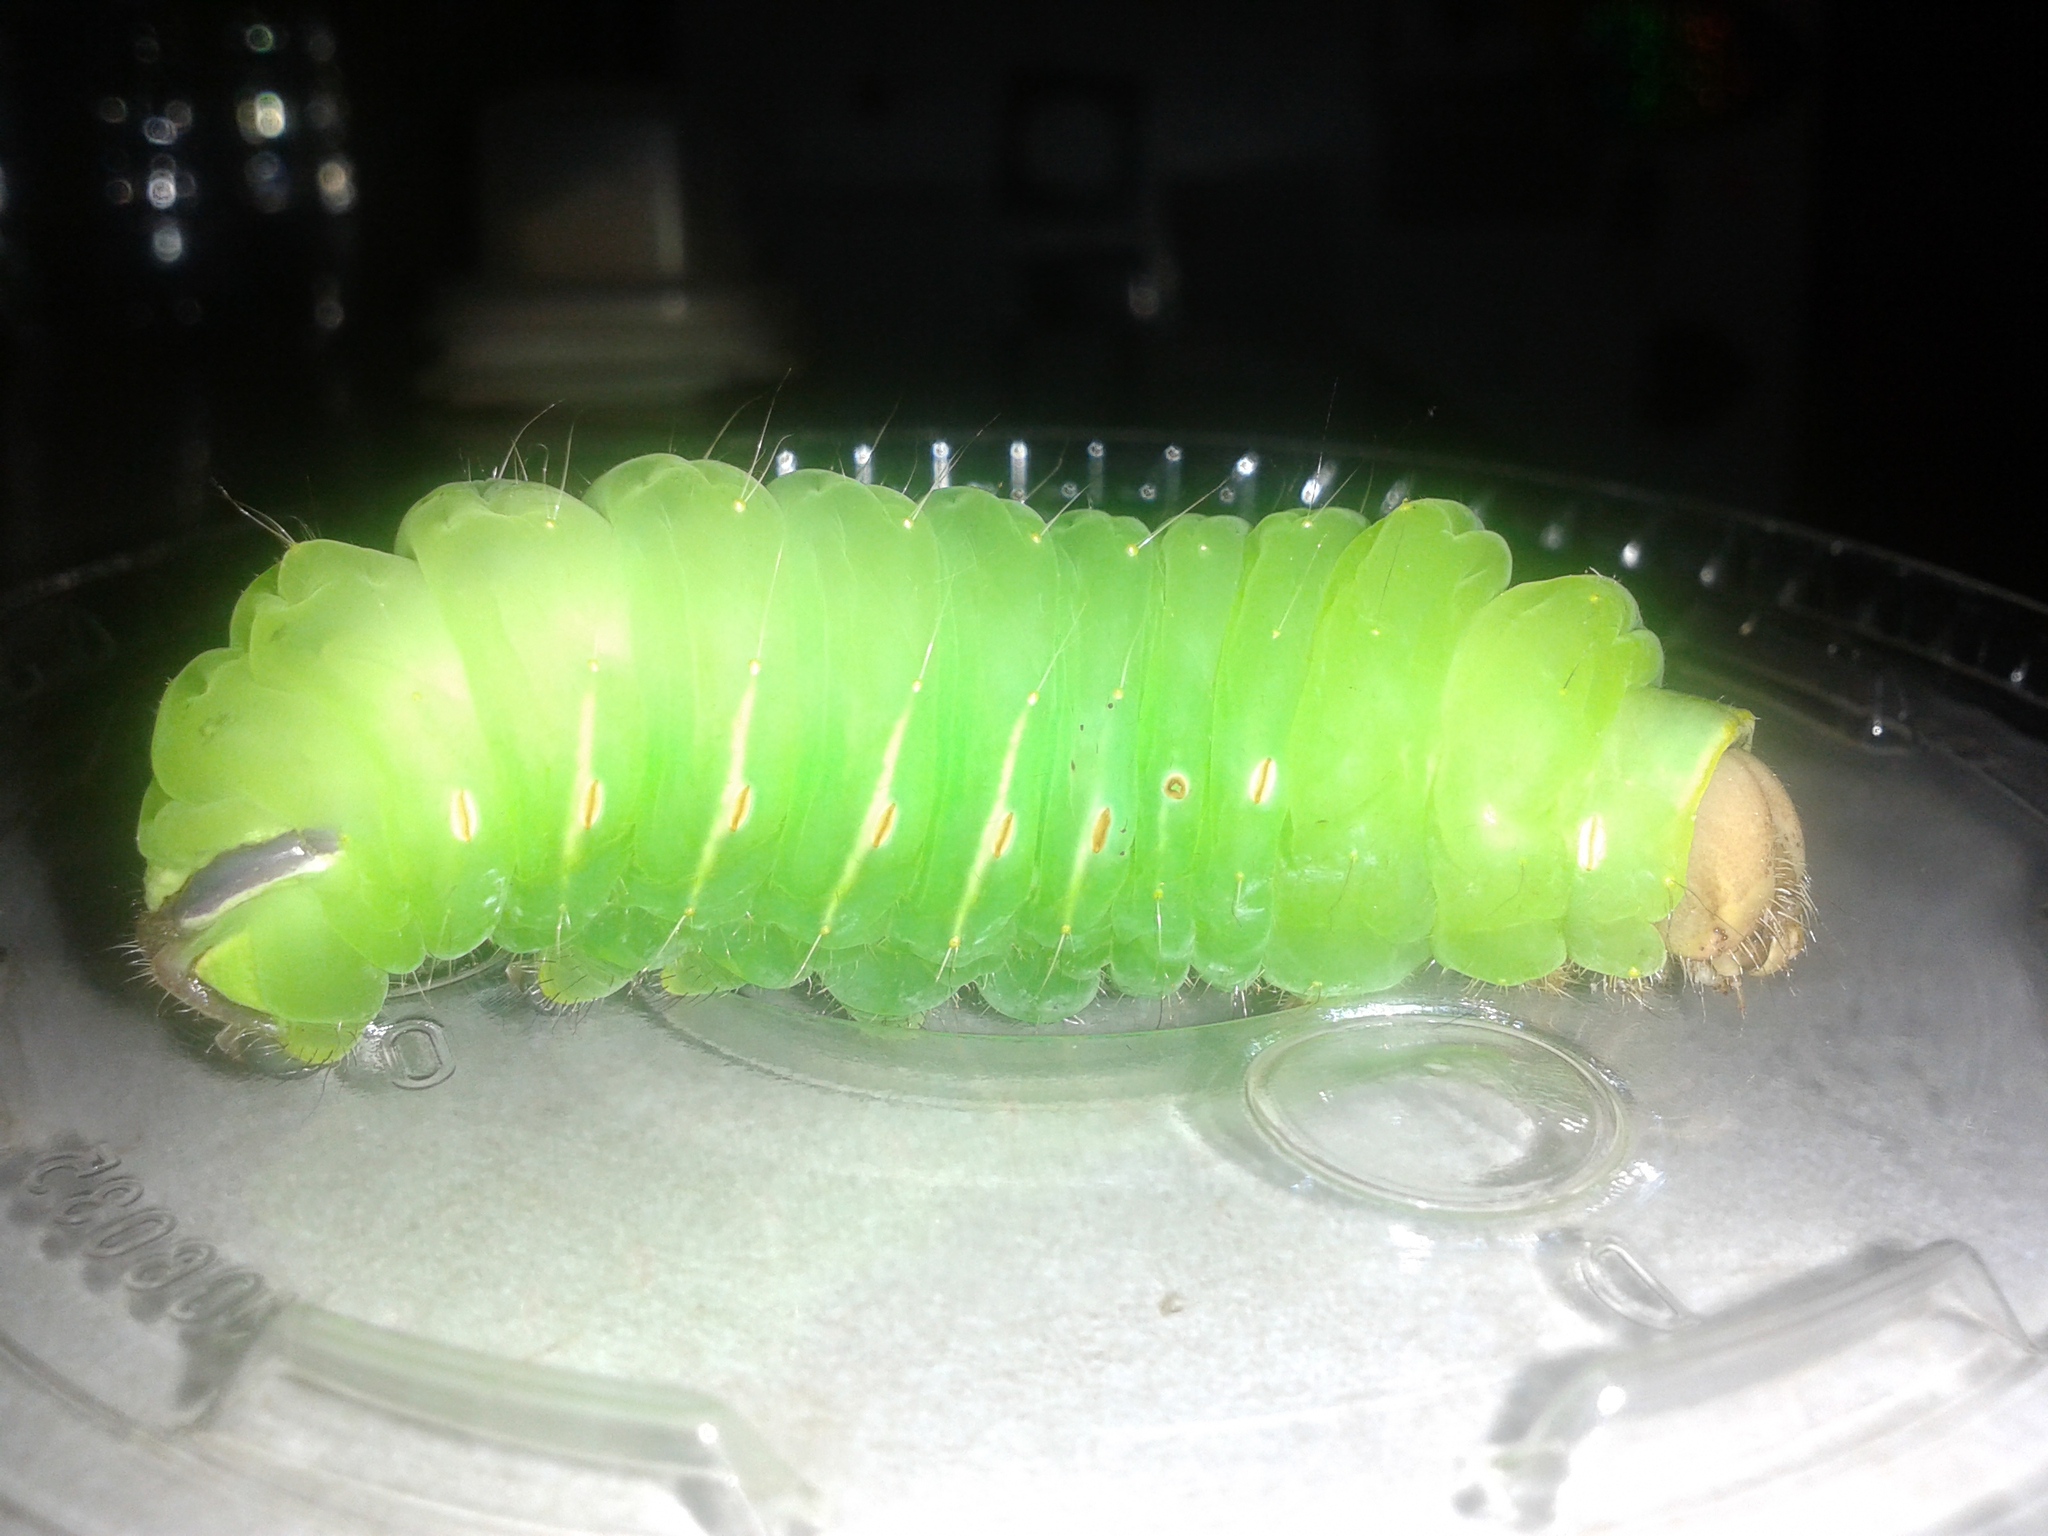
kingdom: Animalia
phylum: Arthropoda
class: Insecta
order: Lepidoptera
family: Saturniidae
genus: Antheraea
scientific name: Antheraea polyphemus
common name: Polyphemus moth
